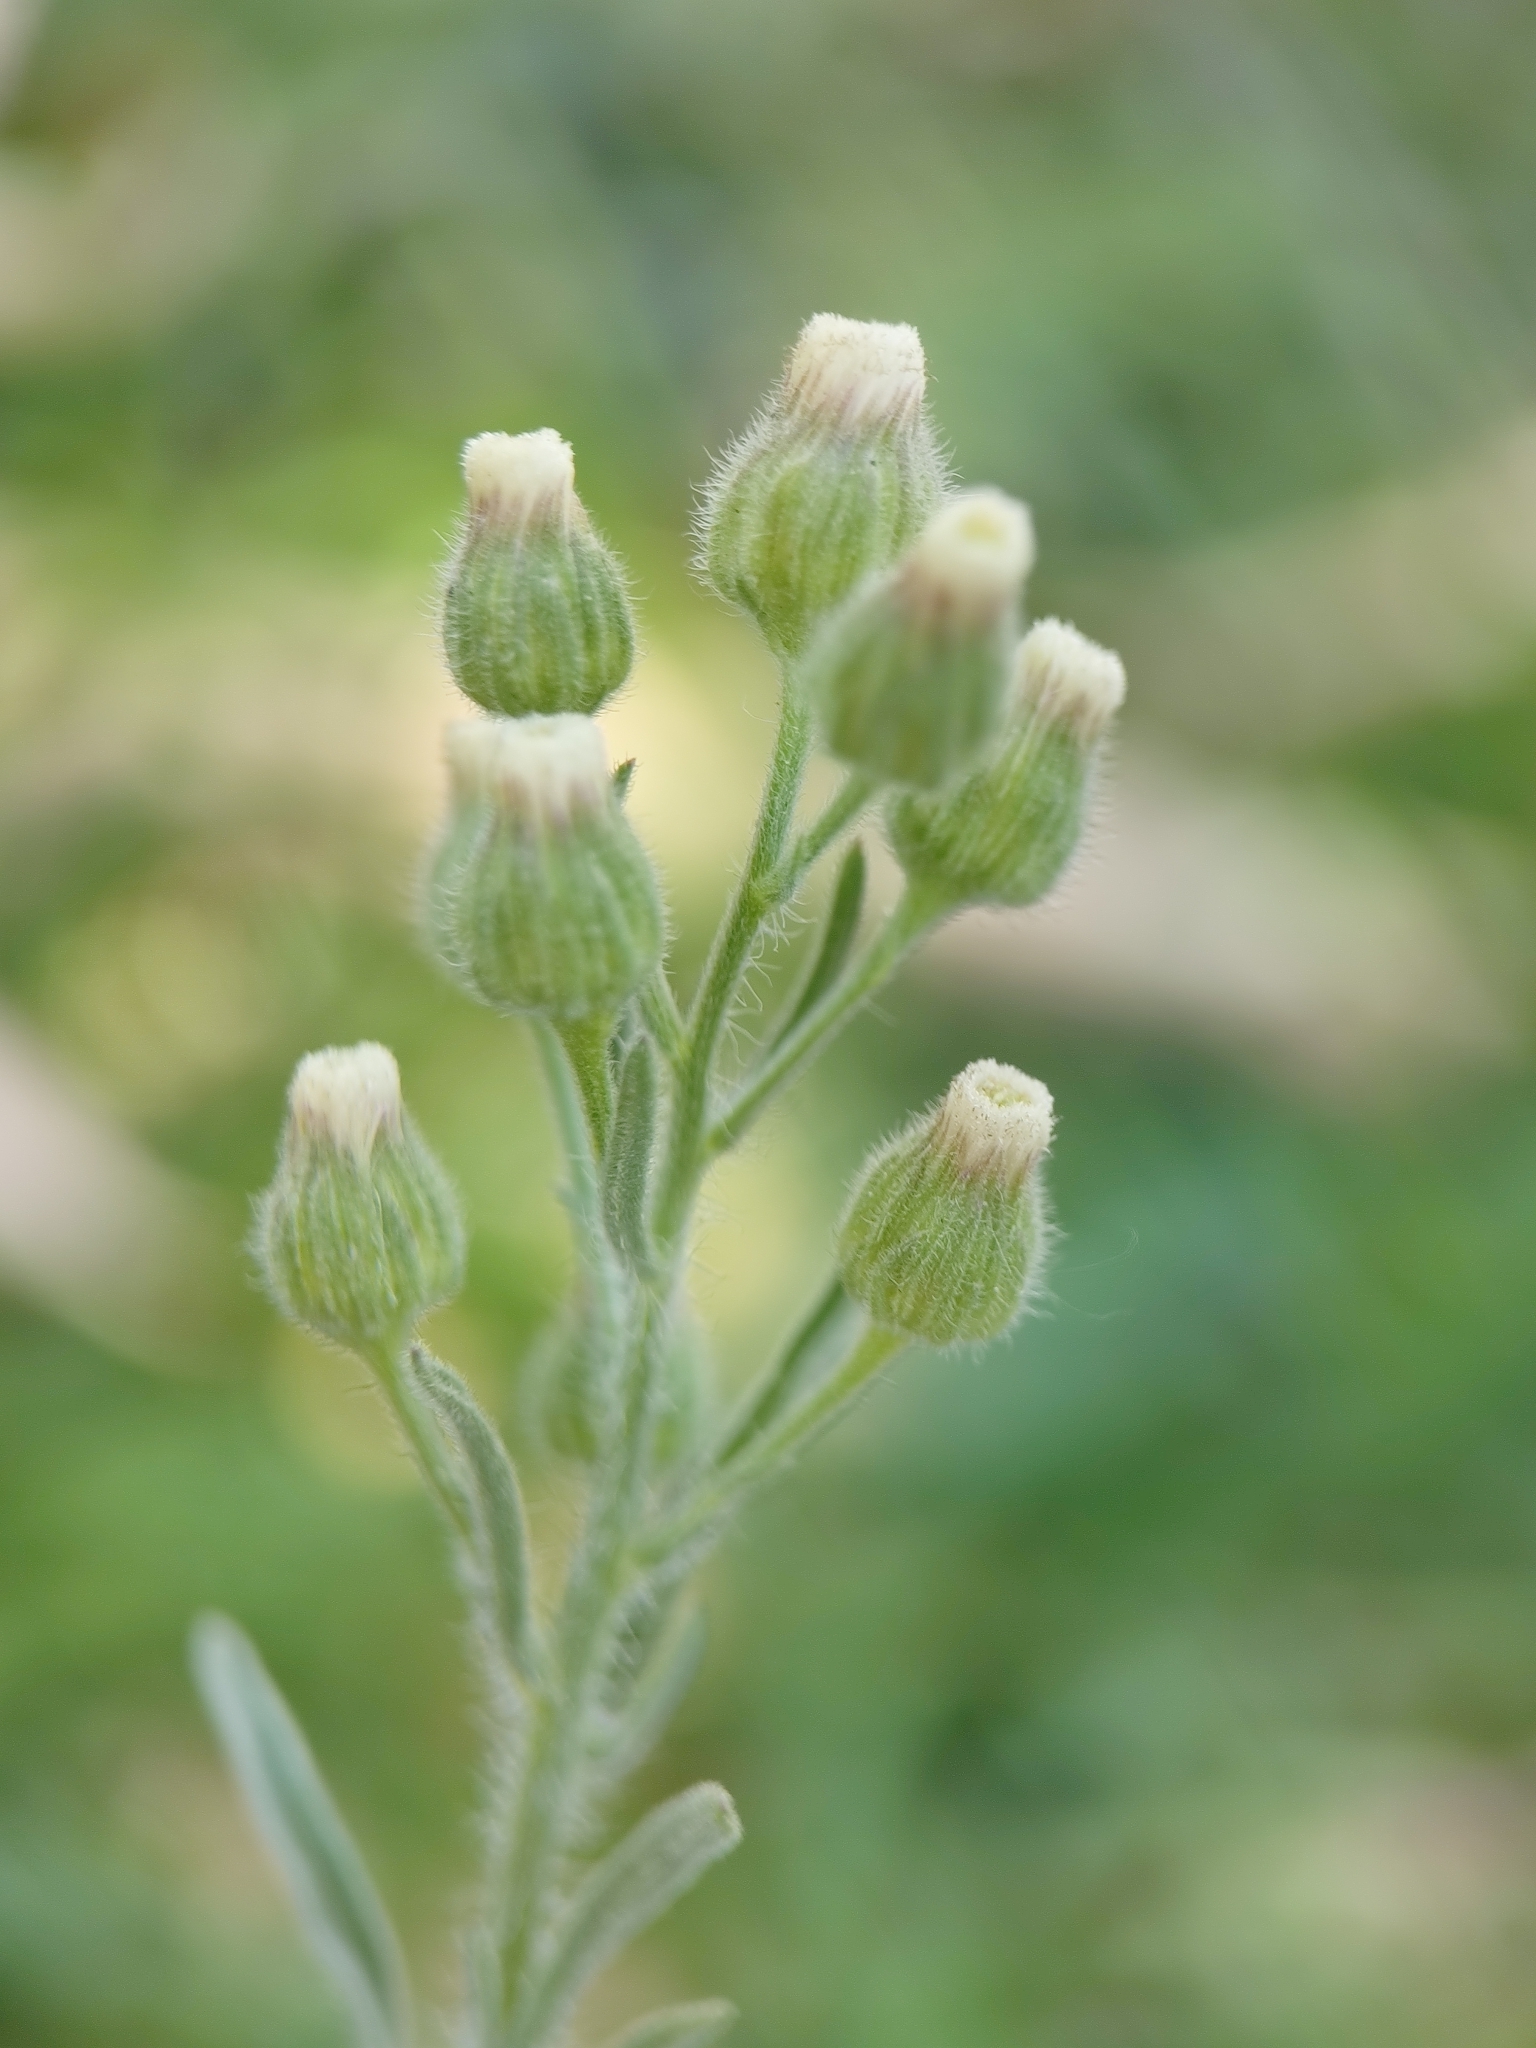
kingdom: Plantae
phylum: Tracheophyta
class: Magnoliopsida
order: Asterales
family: Asteraceae
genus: Erigeron
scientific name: Erigeron bonariensis
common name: Argentine fleabane
